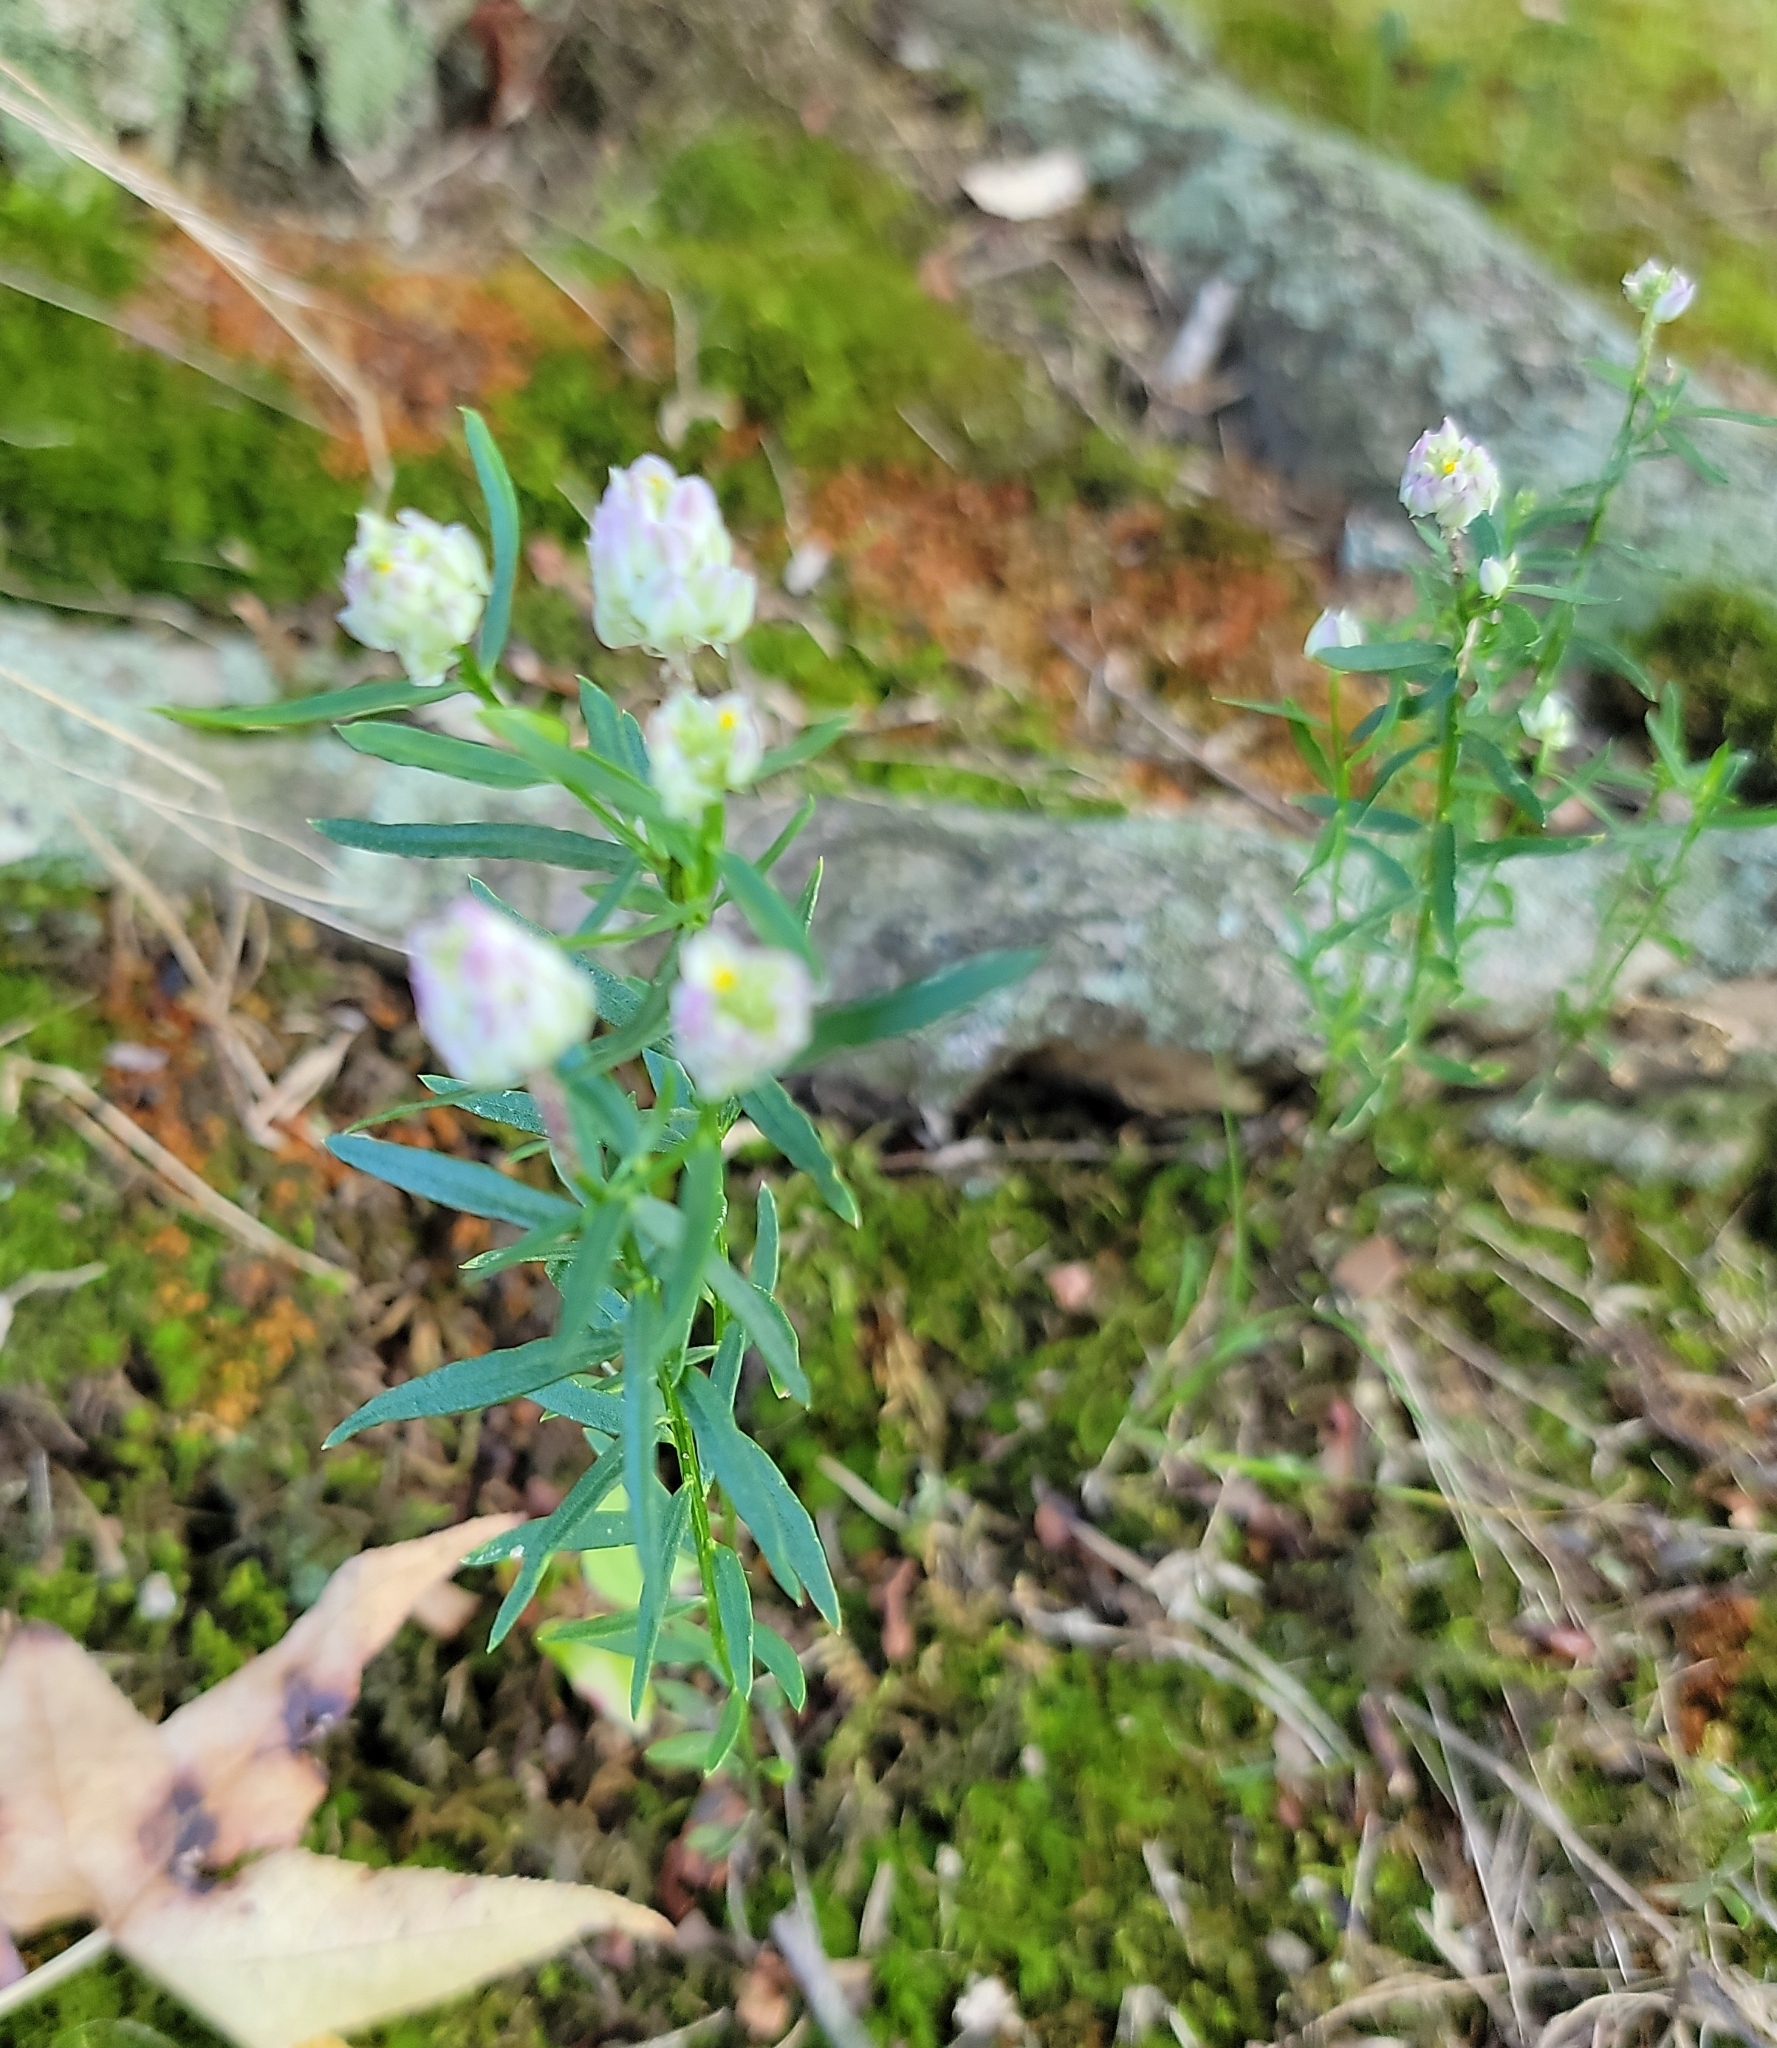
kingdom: Plantae
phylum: Tracheophyta
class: Magnoliopsida
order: Fabales
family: Polygalaceae
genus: Polygala
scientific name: Polygala sanguinea
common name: Blood milkwort
